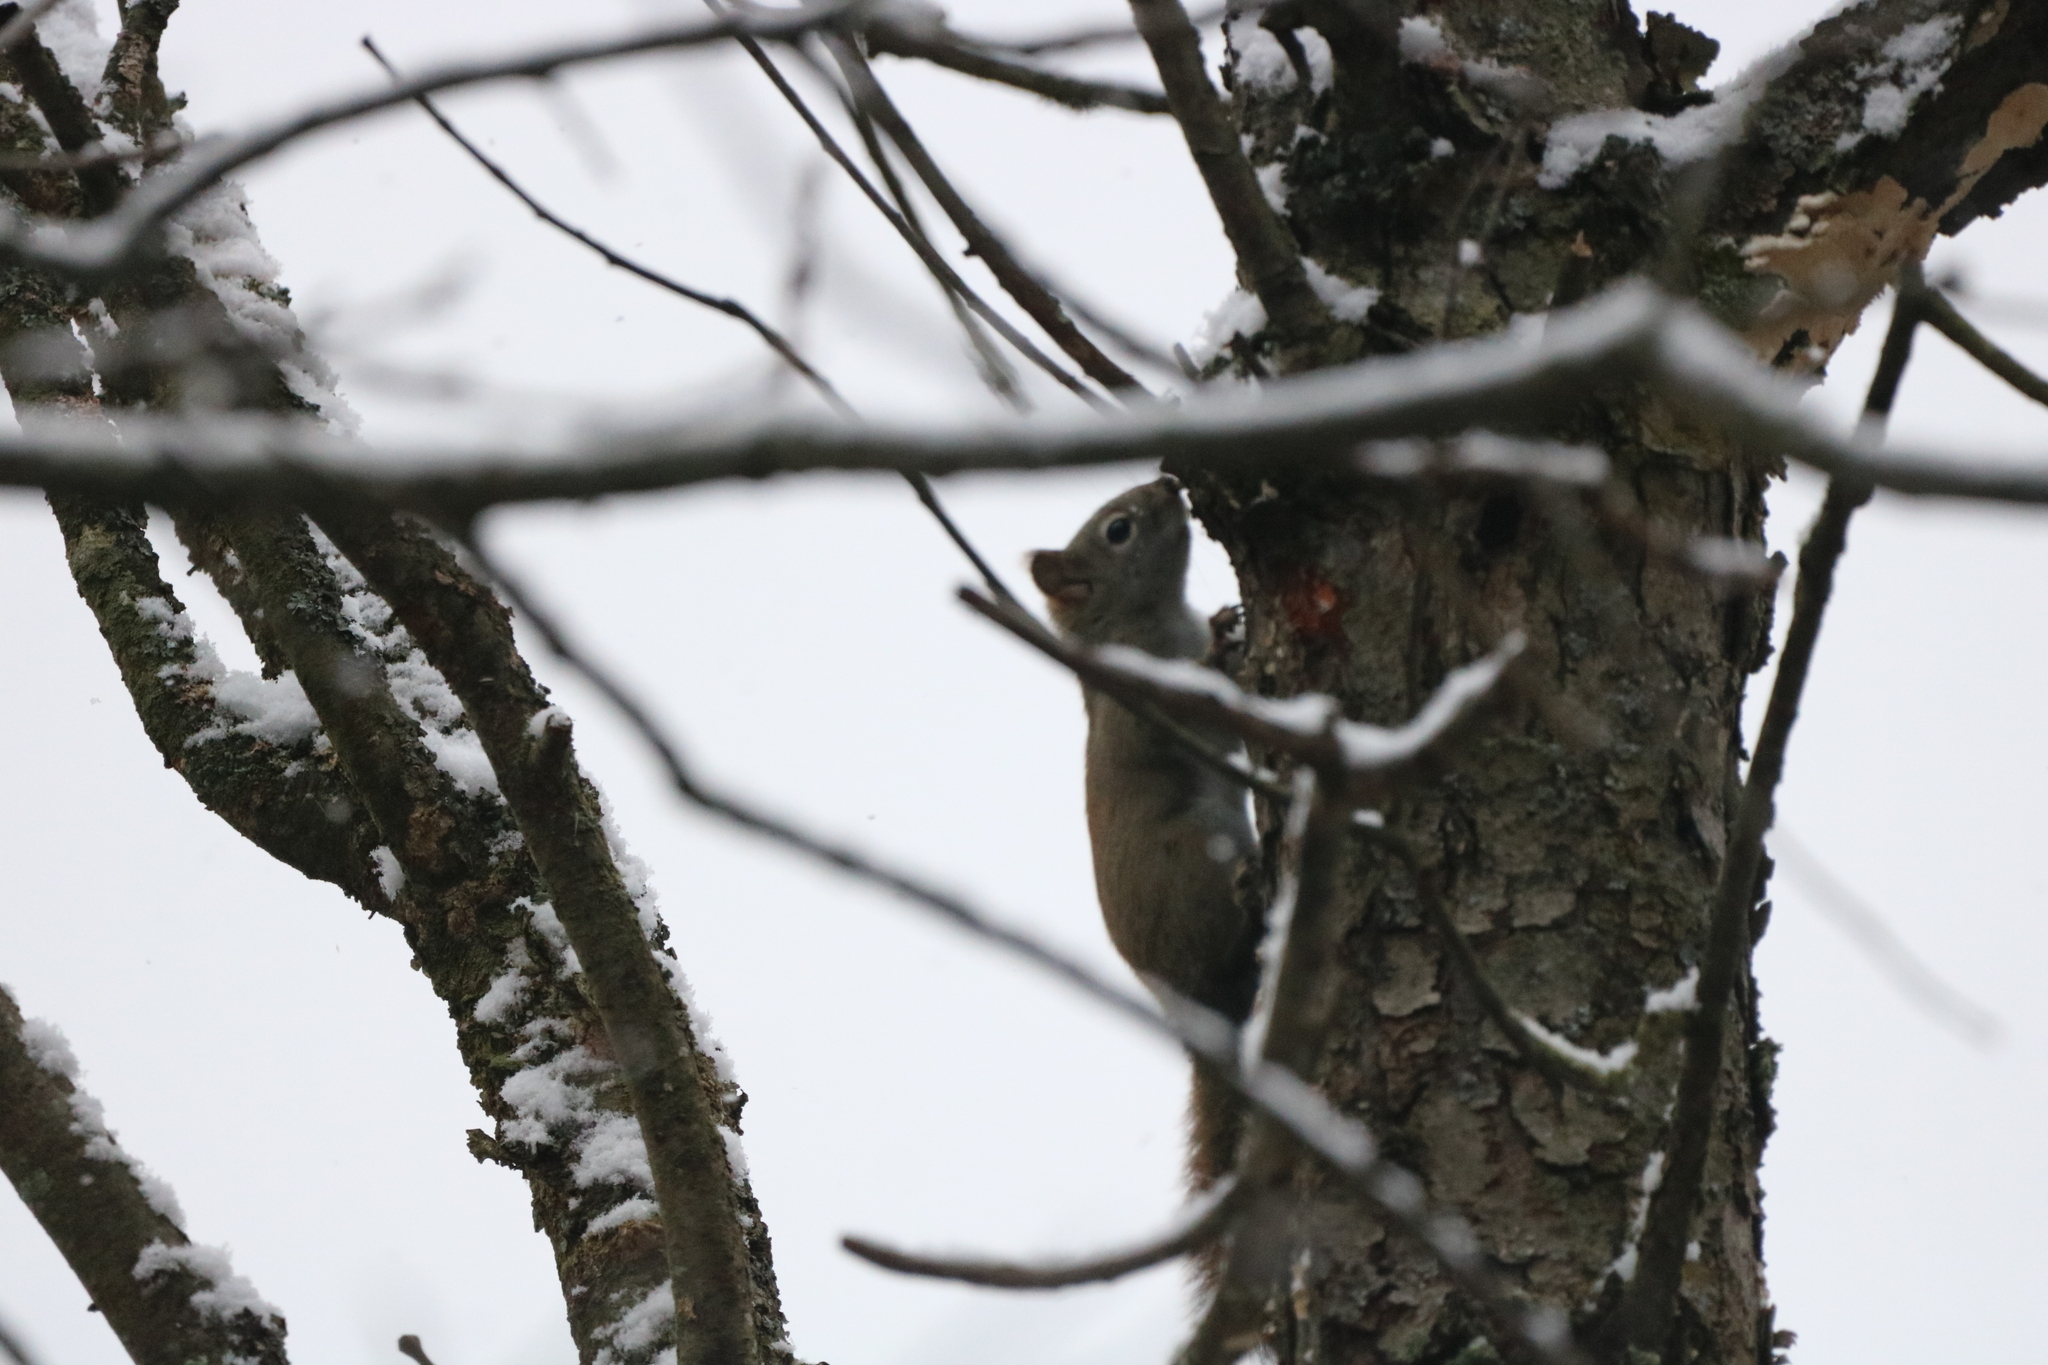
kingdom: Animalia
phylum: Chordata
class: Mammalia
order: Rodentia
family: Sciuridae
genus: Tamiasciurus
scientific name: Tamiasciurus hudsonicus
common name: Red squirrel
